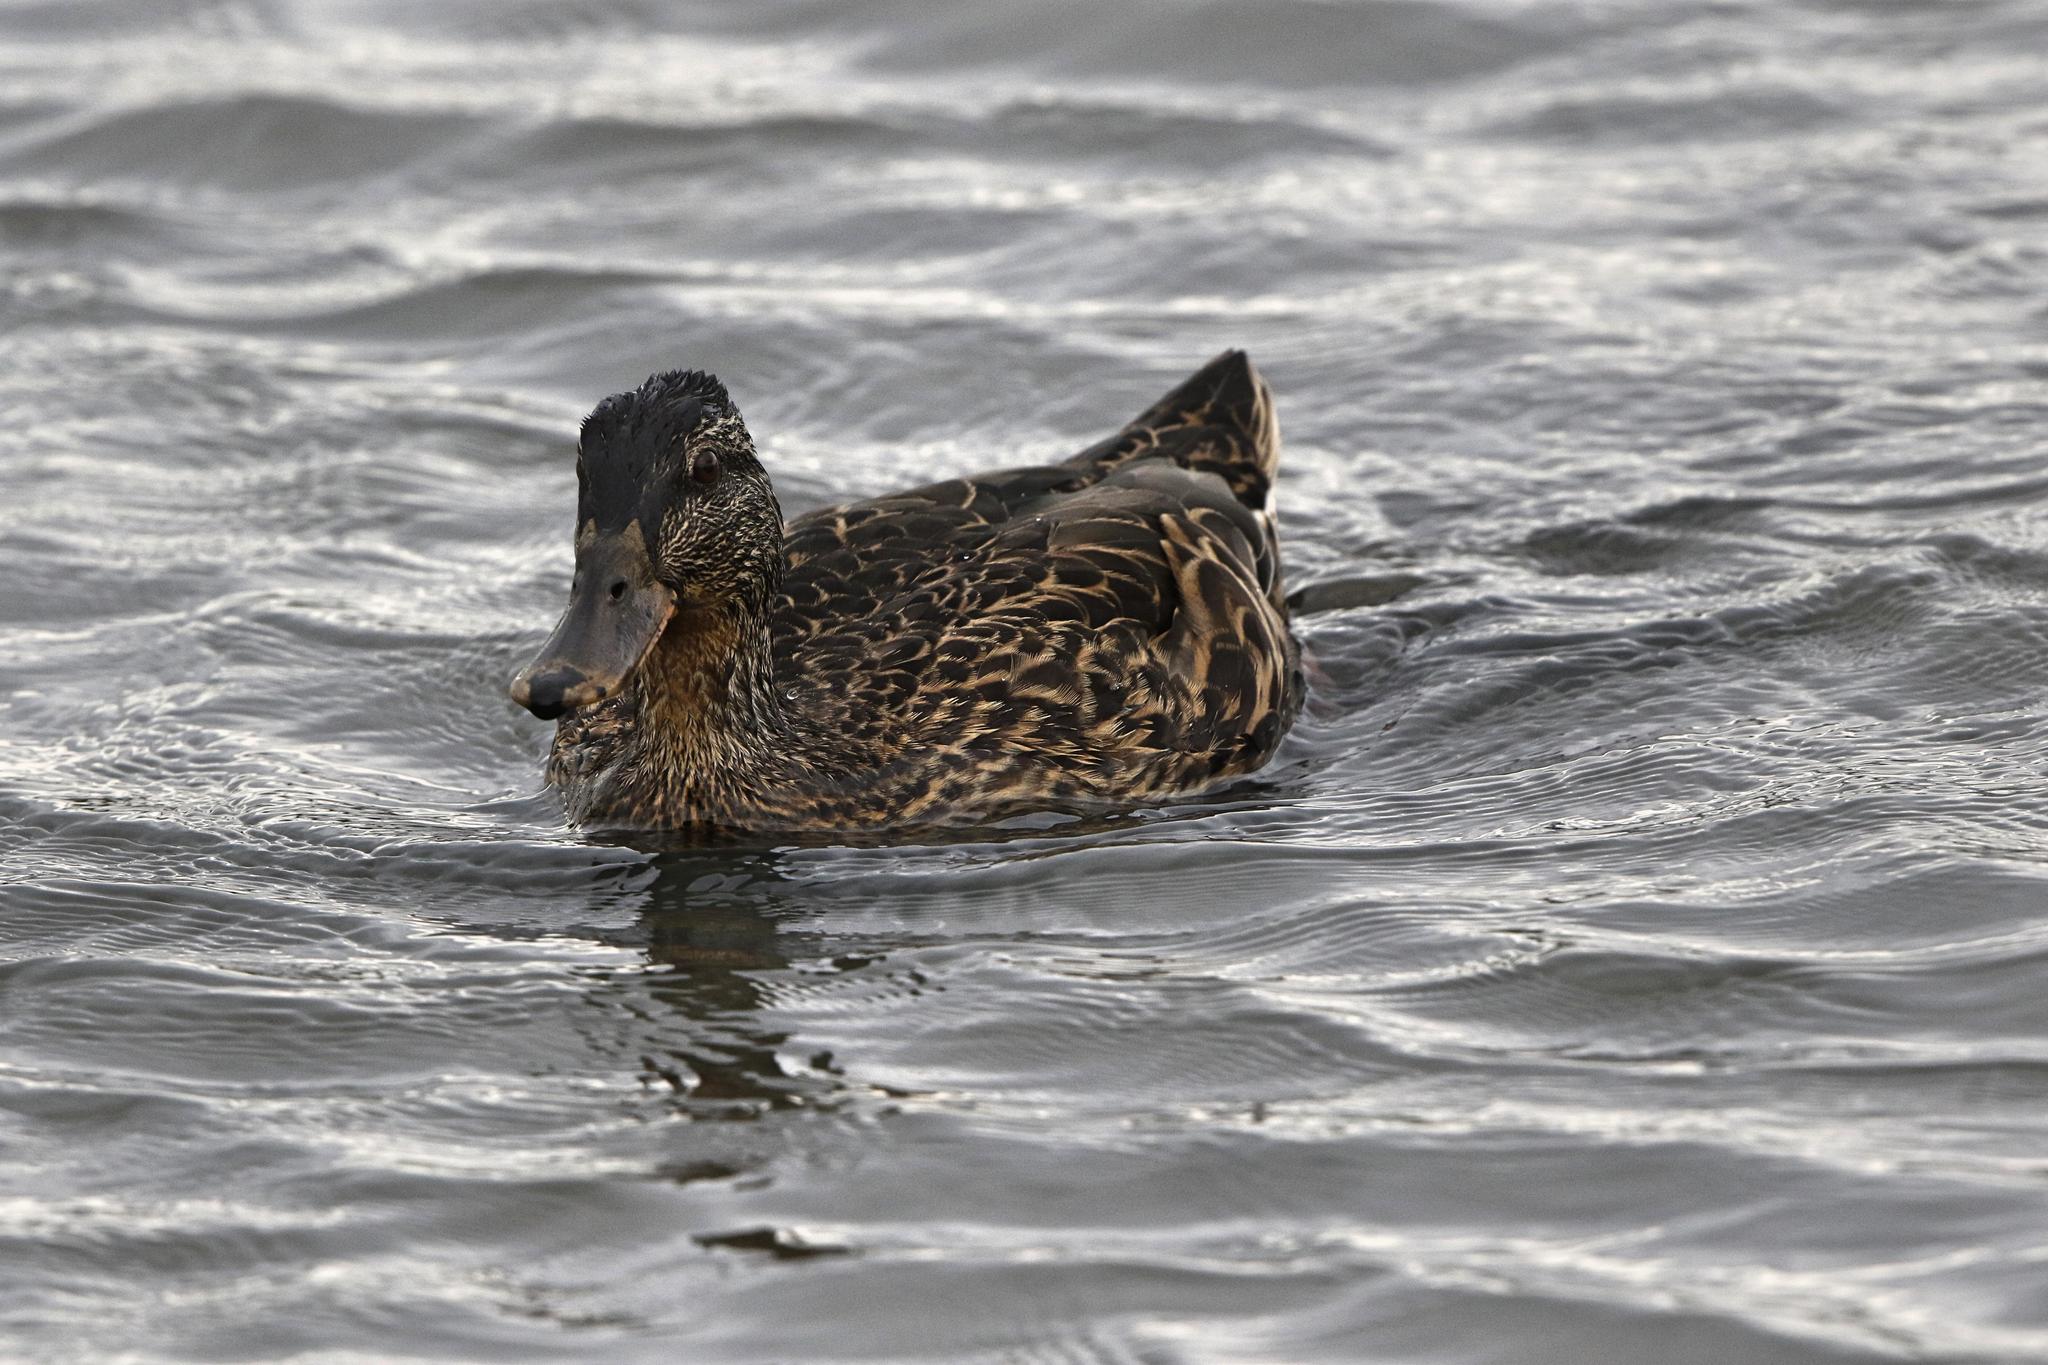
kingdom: Animalia
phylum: Chordata
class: Aves
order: Anseriformes
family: Anatidae
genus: Anas
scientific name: Anas platyrhynchos
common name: Mallard
